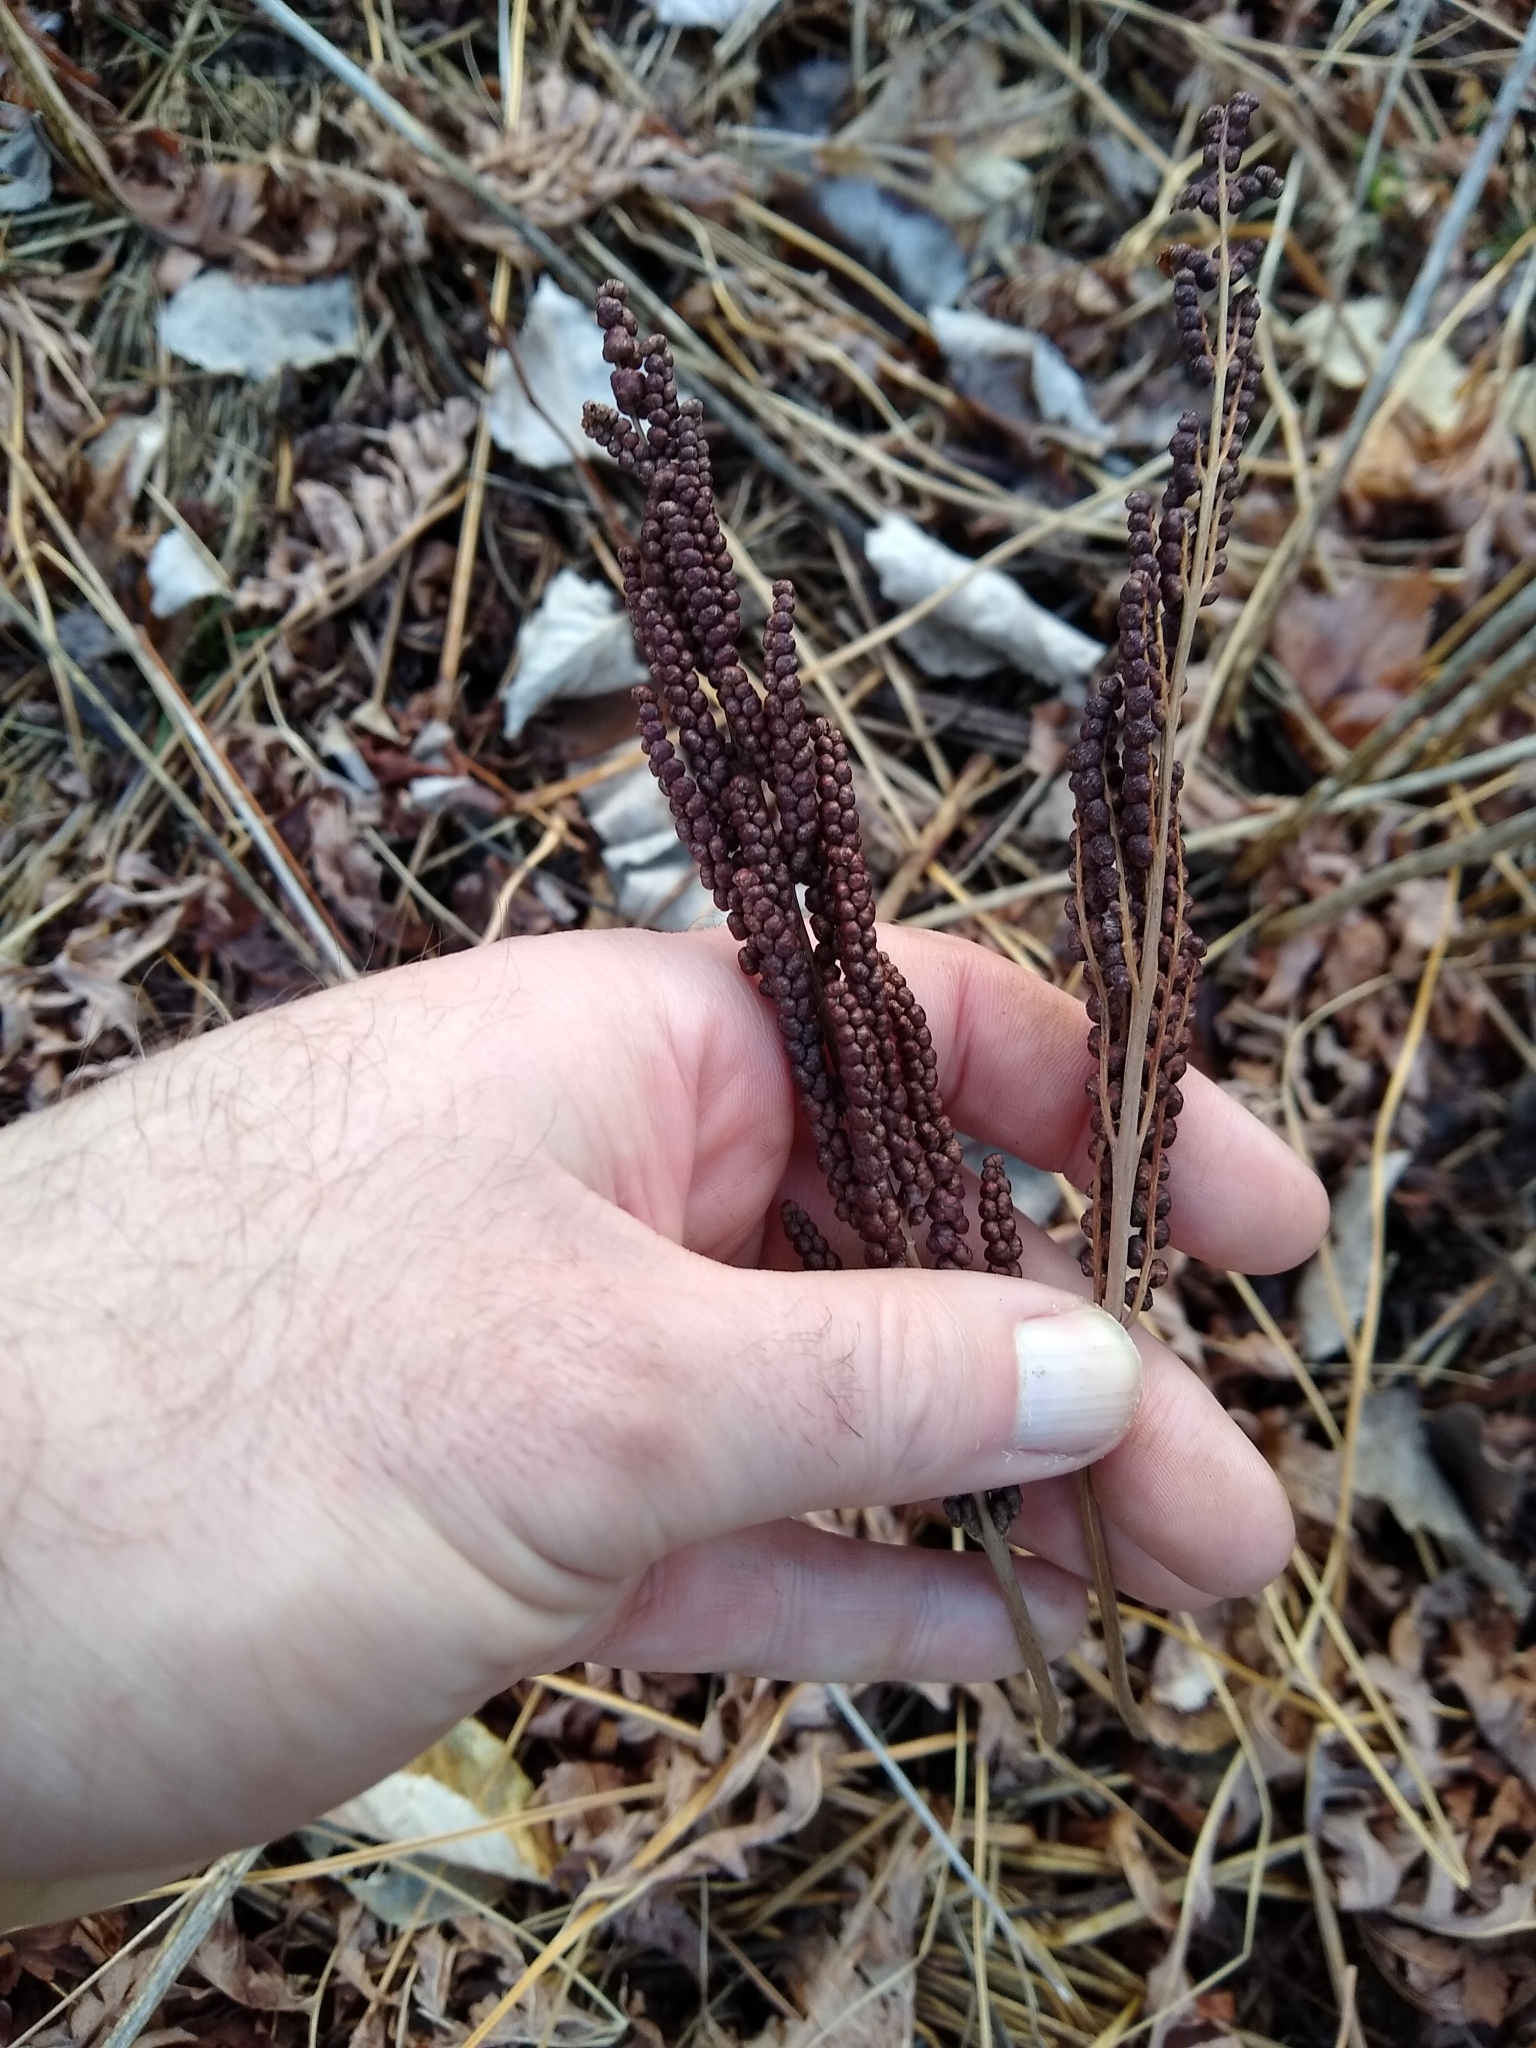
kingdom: Plantae
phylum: Tracheophyta
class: Polypodiopsida
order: Polypodiales
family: Onocleaceae
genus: Onoclea
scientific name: Onoclea sensibilis
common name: Sensitive fern
